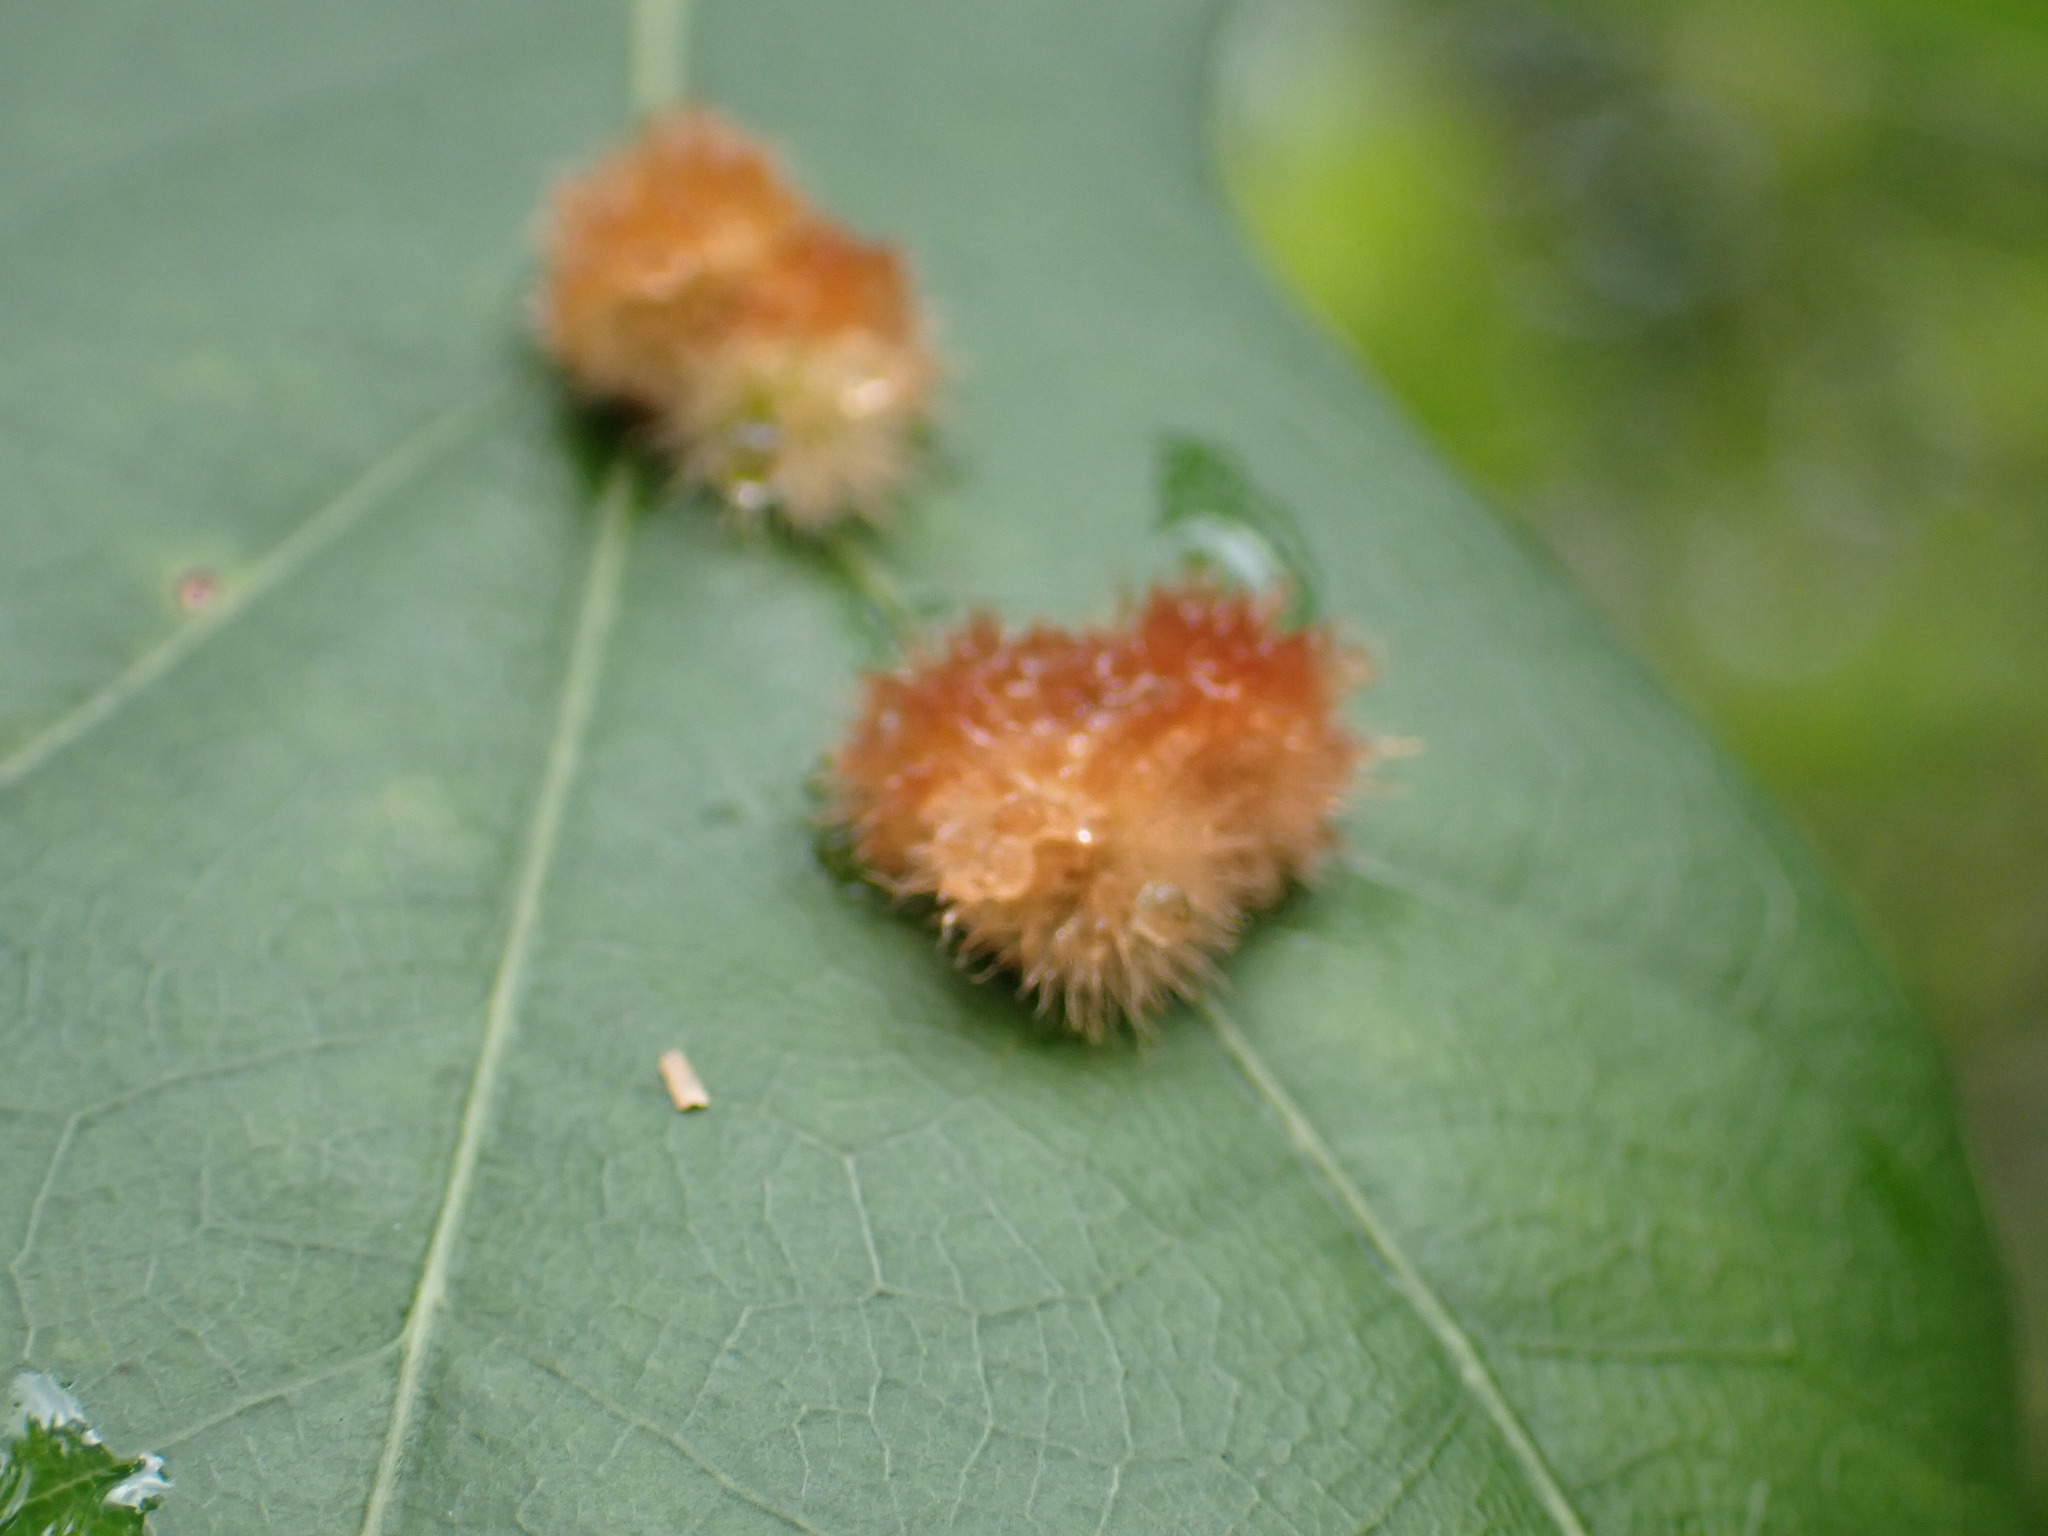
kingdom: Animalia
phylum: Arthropoda
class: Insecta
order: Hymenoptera
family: Cynipidae
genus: Callirhytis
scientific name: Callirhytis
